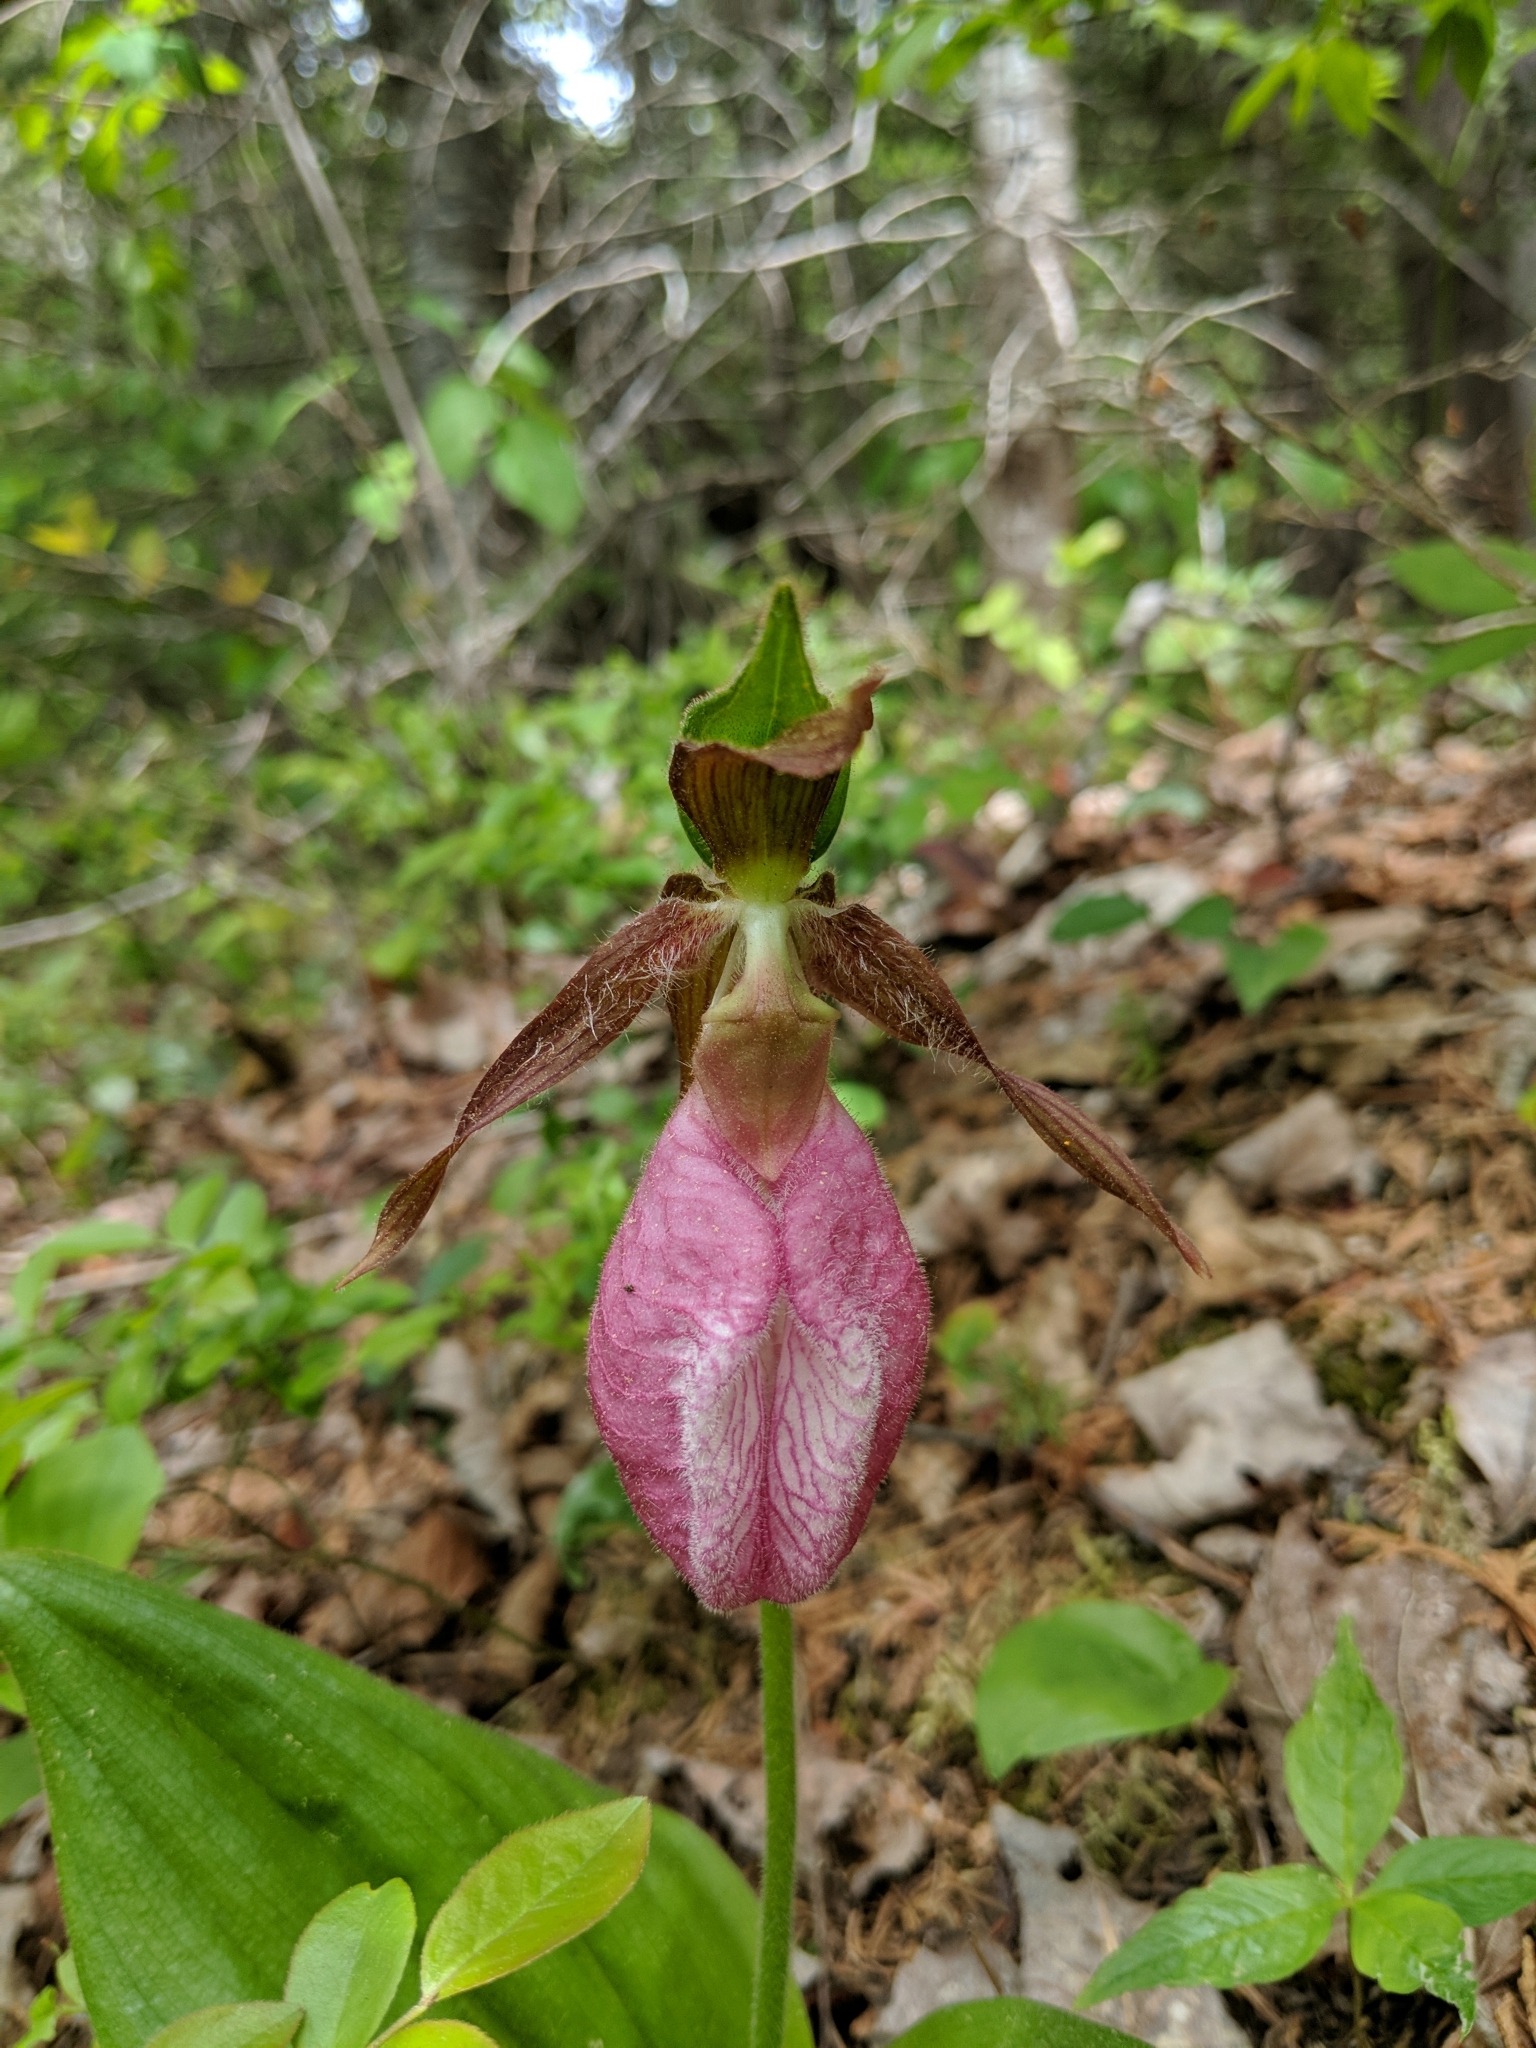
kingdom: Plantae
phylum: Tracheophyta
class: Liliopsida
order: Asparagales
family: Orchidaceae
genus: Cypripedium
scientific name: Cypripedium acaule
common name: Pink lady's-slipper
